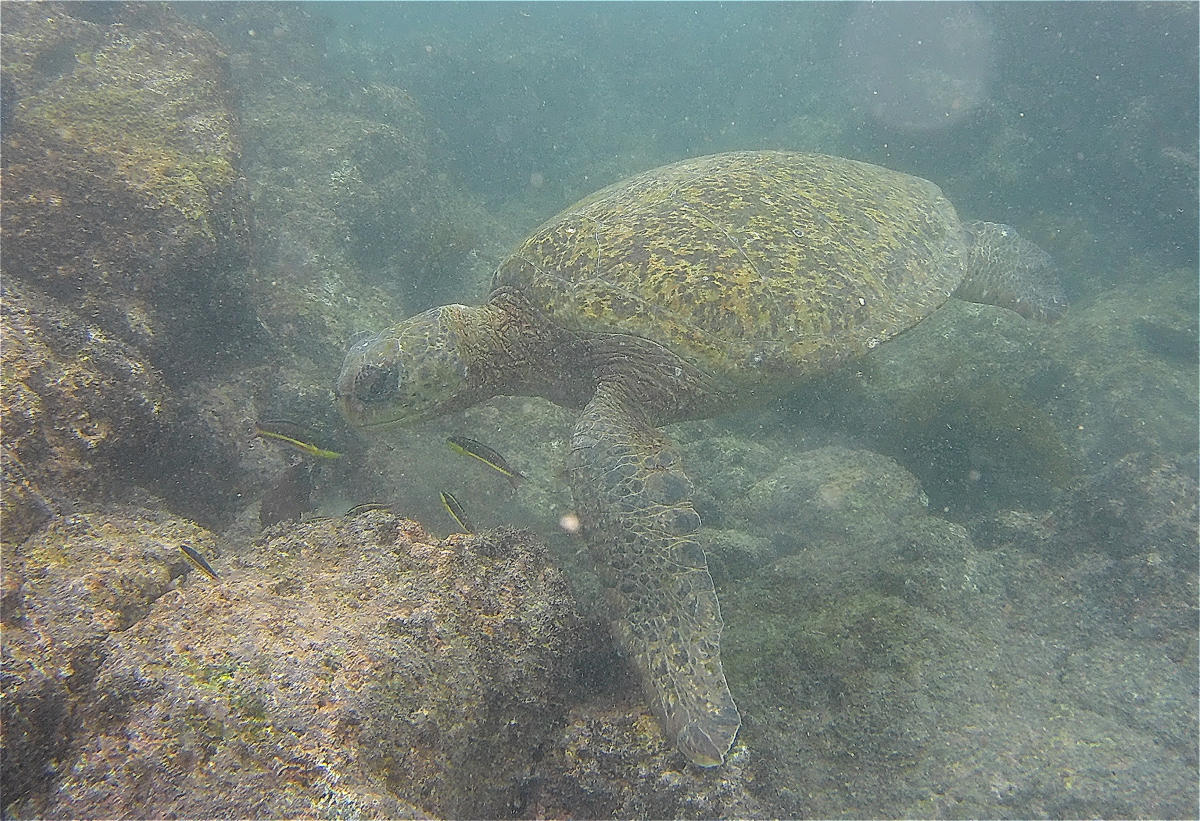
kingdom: Animalia
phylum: Chordata
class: Testudines
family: Cheloniidae
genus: Chelonia
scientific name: Chelonia mydas
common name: Green turtle
